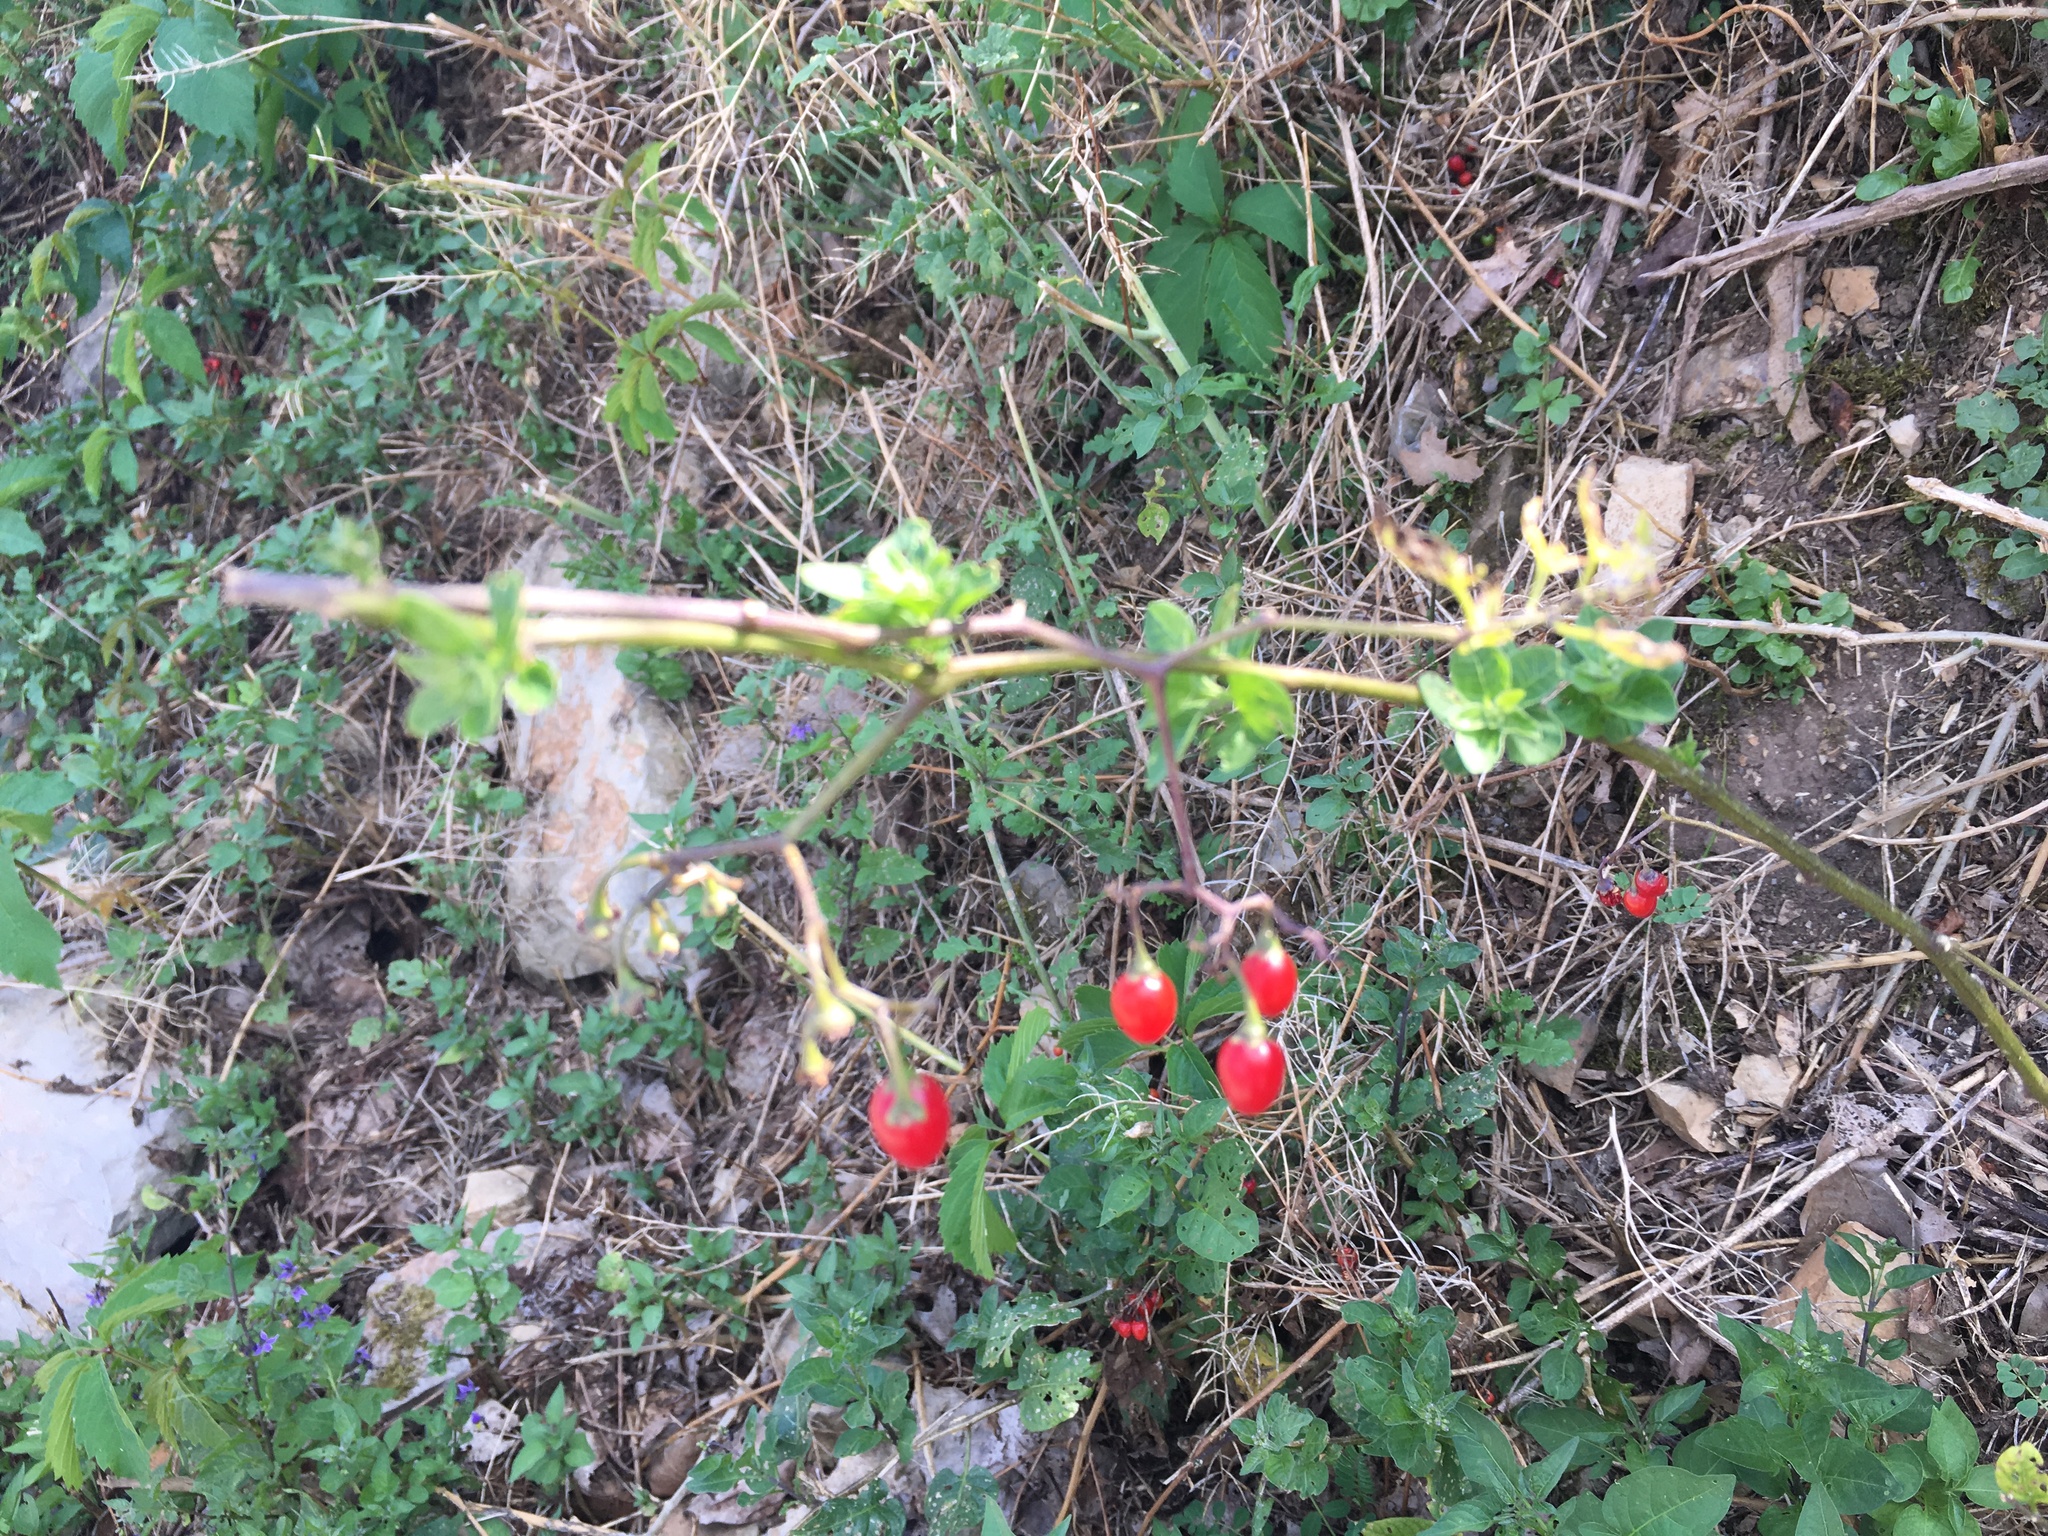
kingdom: Plantae
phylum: Tracheophyta
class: Magnoliopsida
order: Solanales
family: Solanaceae
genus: Solanum
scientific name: Solanum dulcamara
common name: Climbing nightshade
